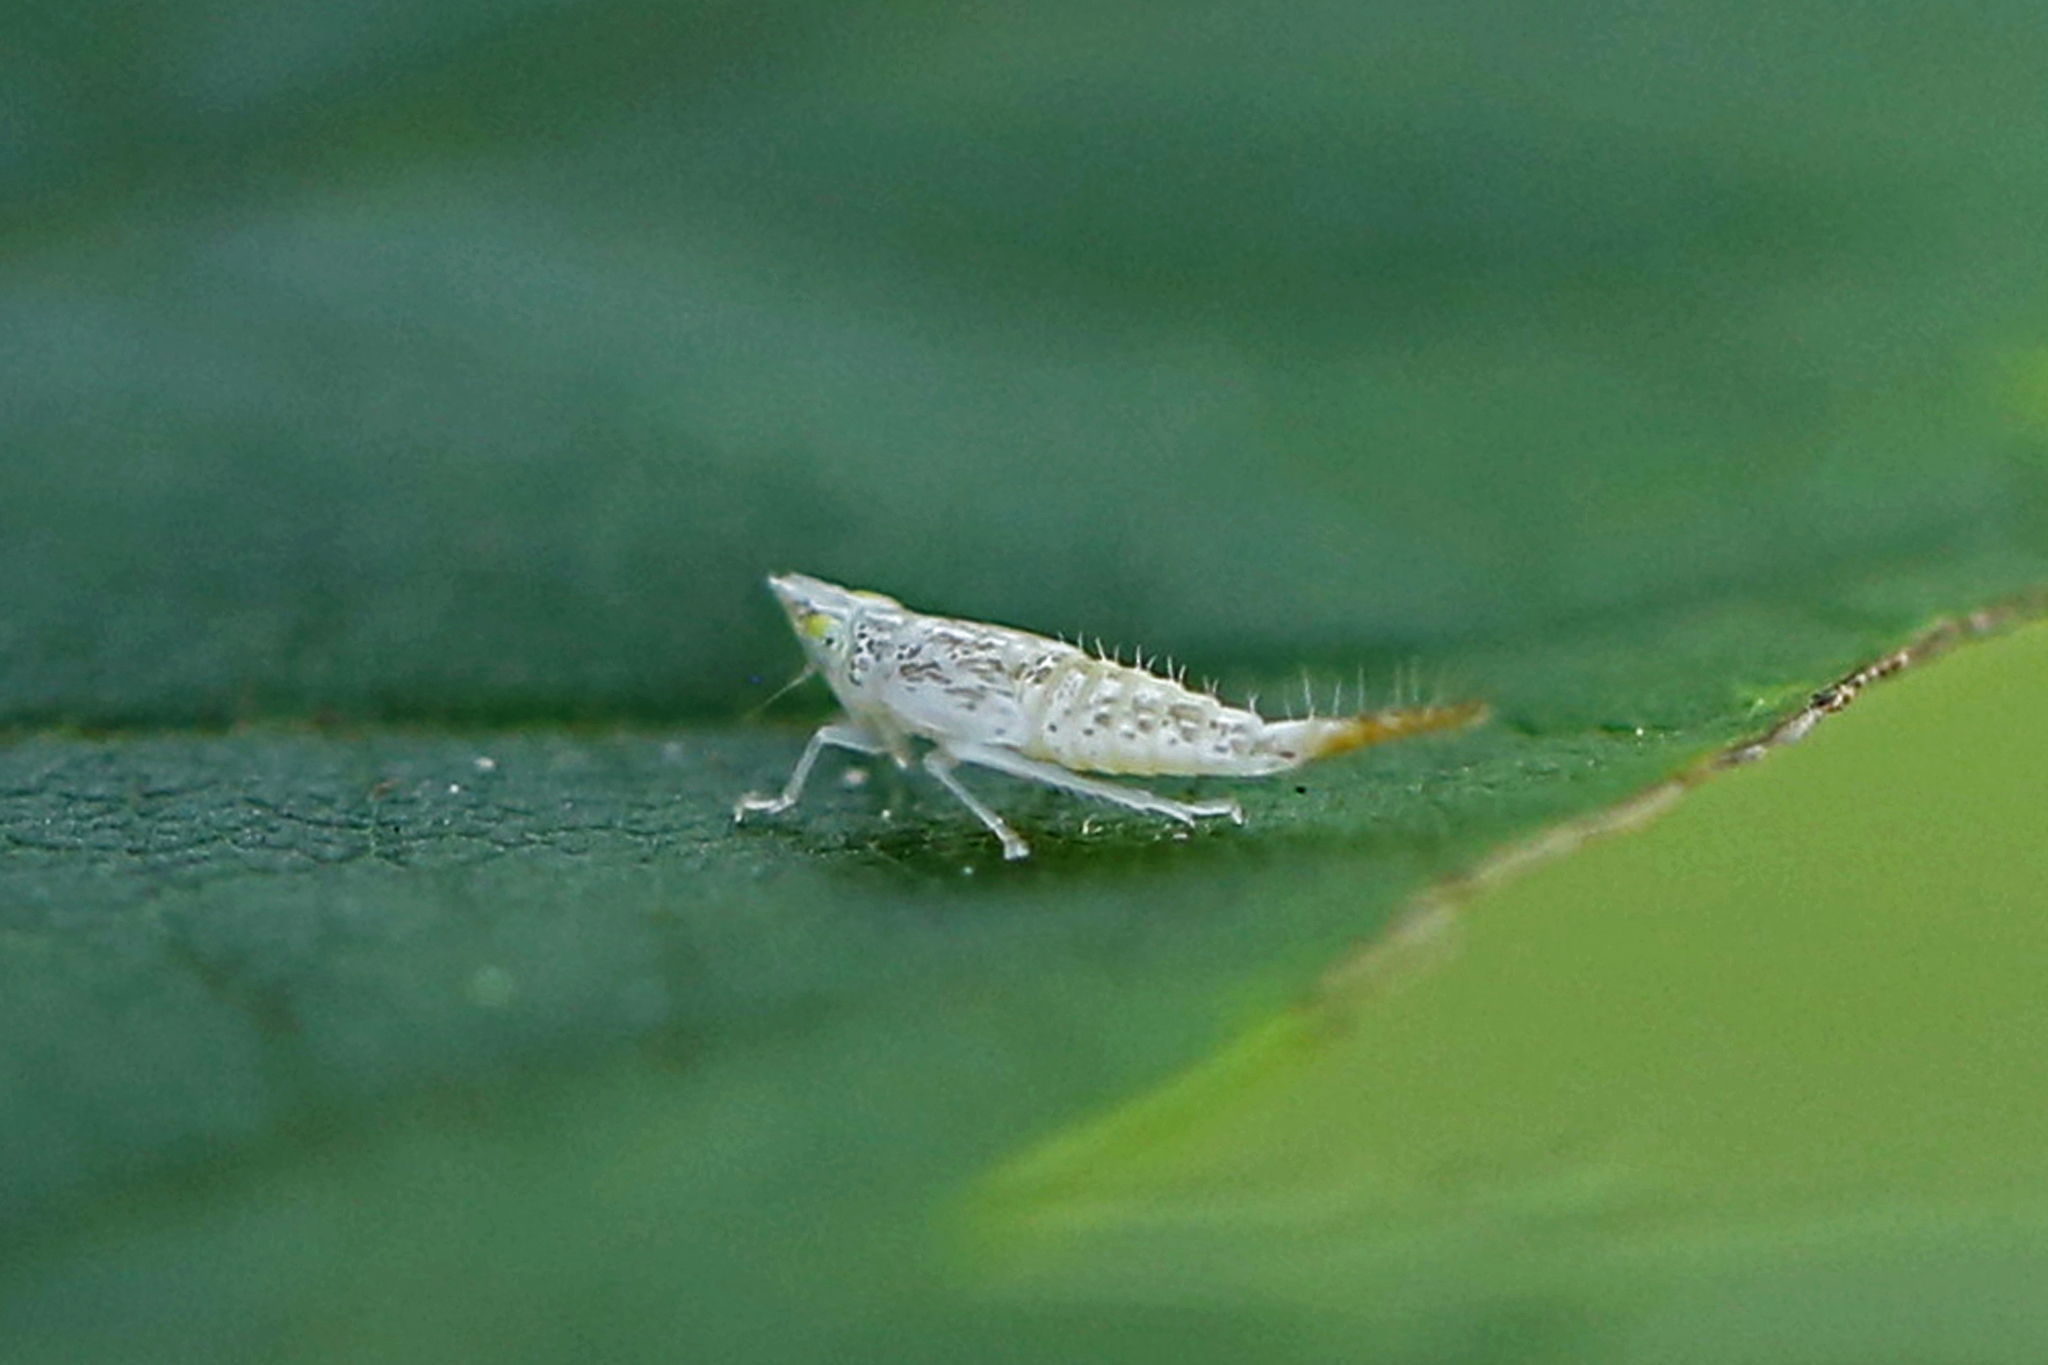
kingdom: Animalia
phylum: Arthropoda
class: Insecta
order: Hemiptera
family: Cicadellidae
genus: Japananus
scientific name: Japananus hyalinus
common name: The japanese maple leafhopper
